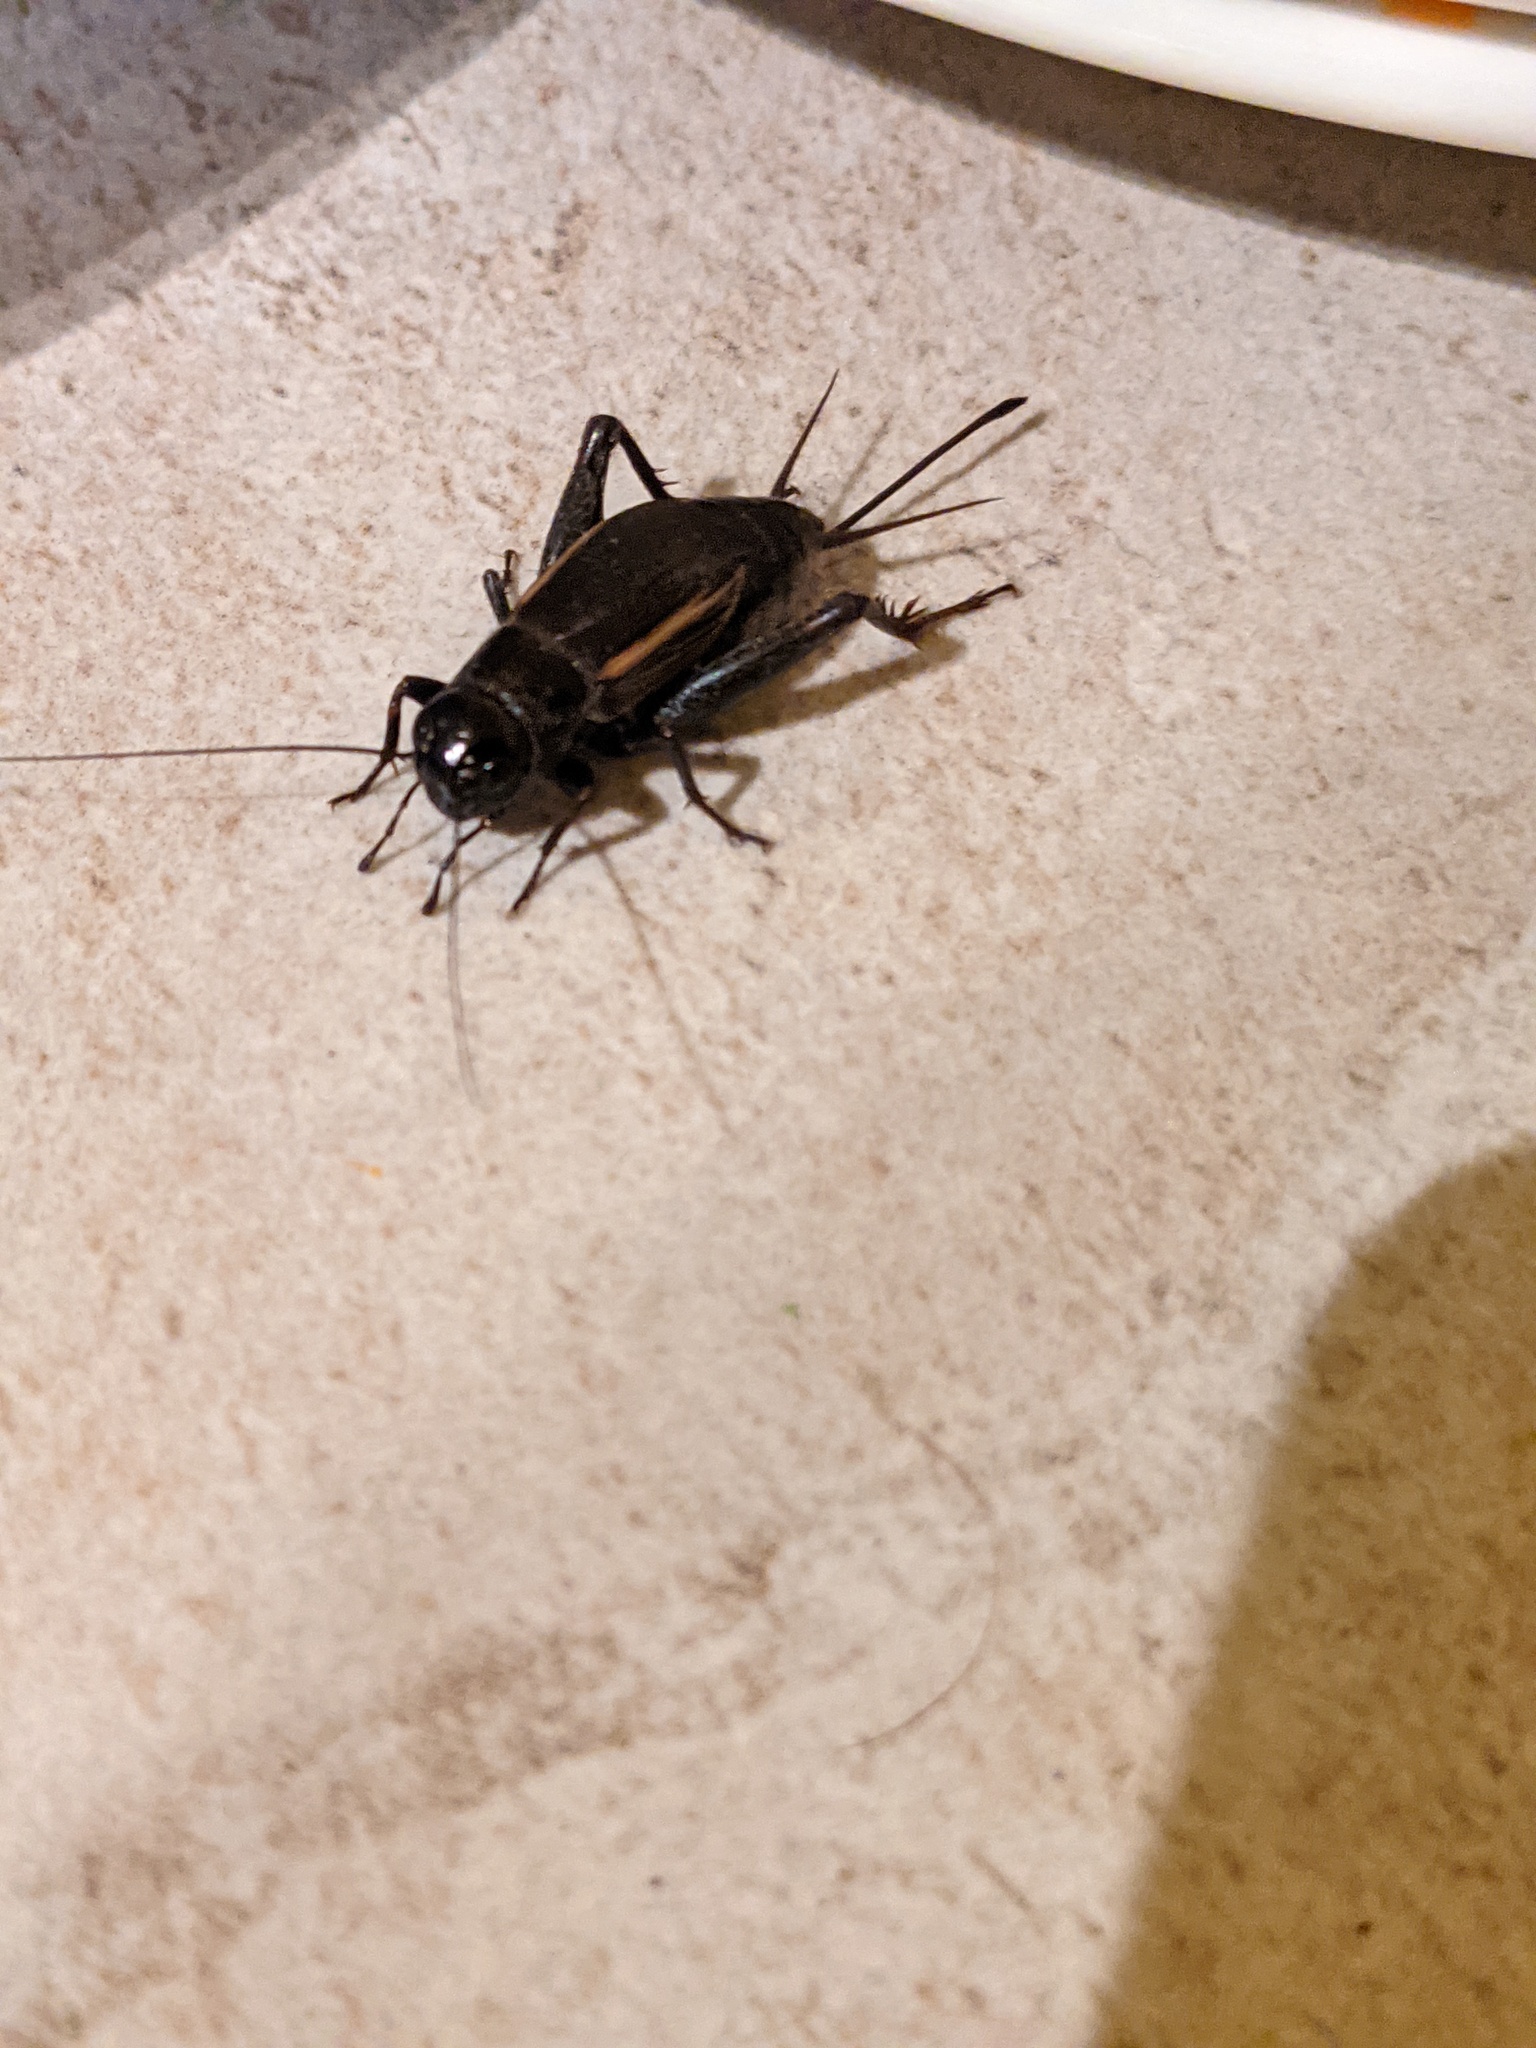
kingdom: Animalia
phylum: Arthropoda
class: Insecta
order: Orthoptera
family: Gryllidae
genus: Gryllus
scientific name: Gryllus pennsylvanicus
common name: Fall field cricket
